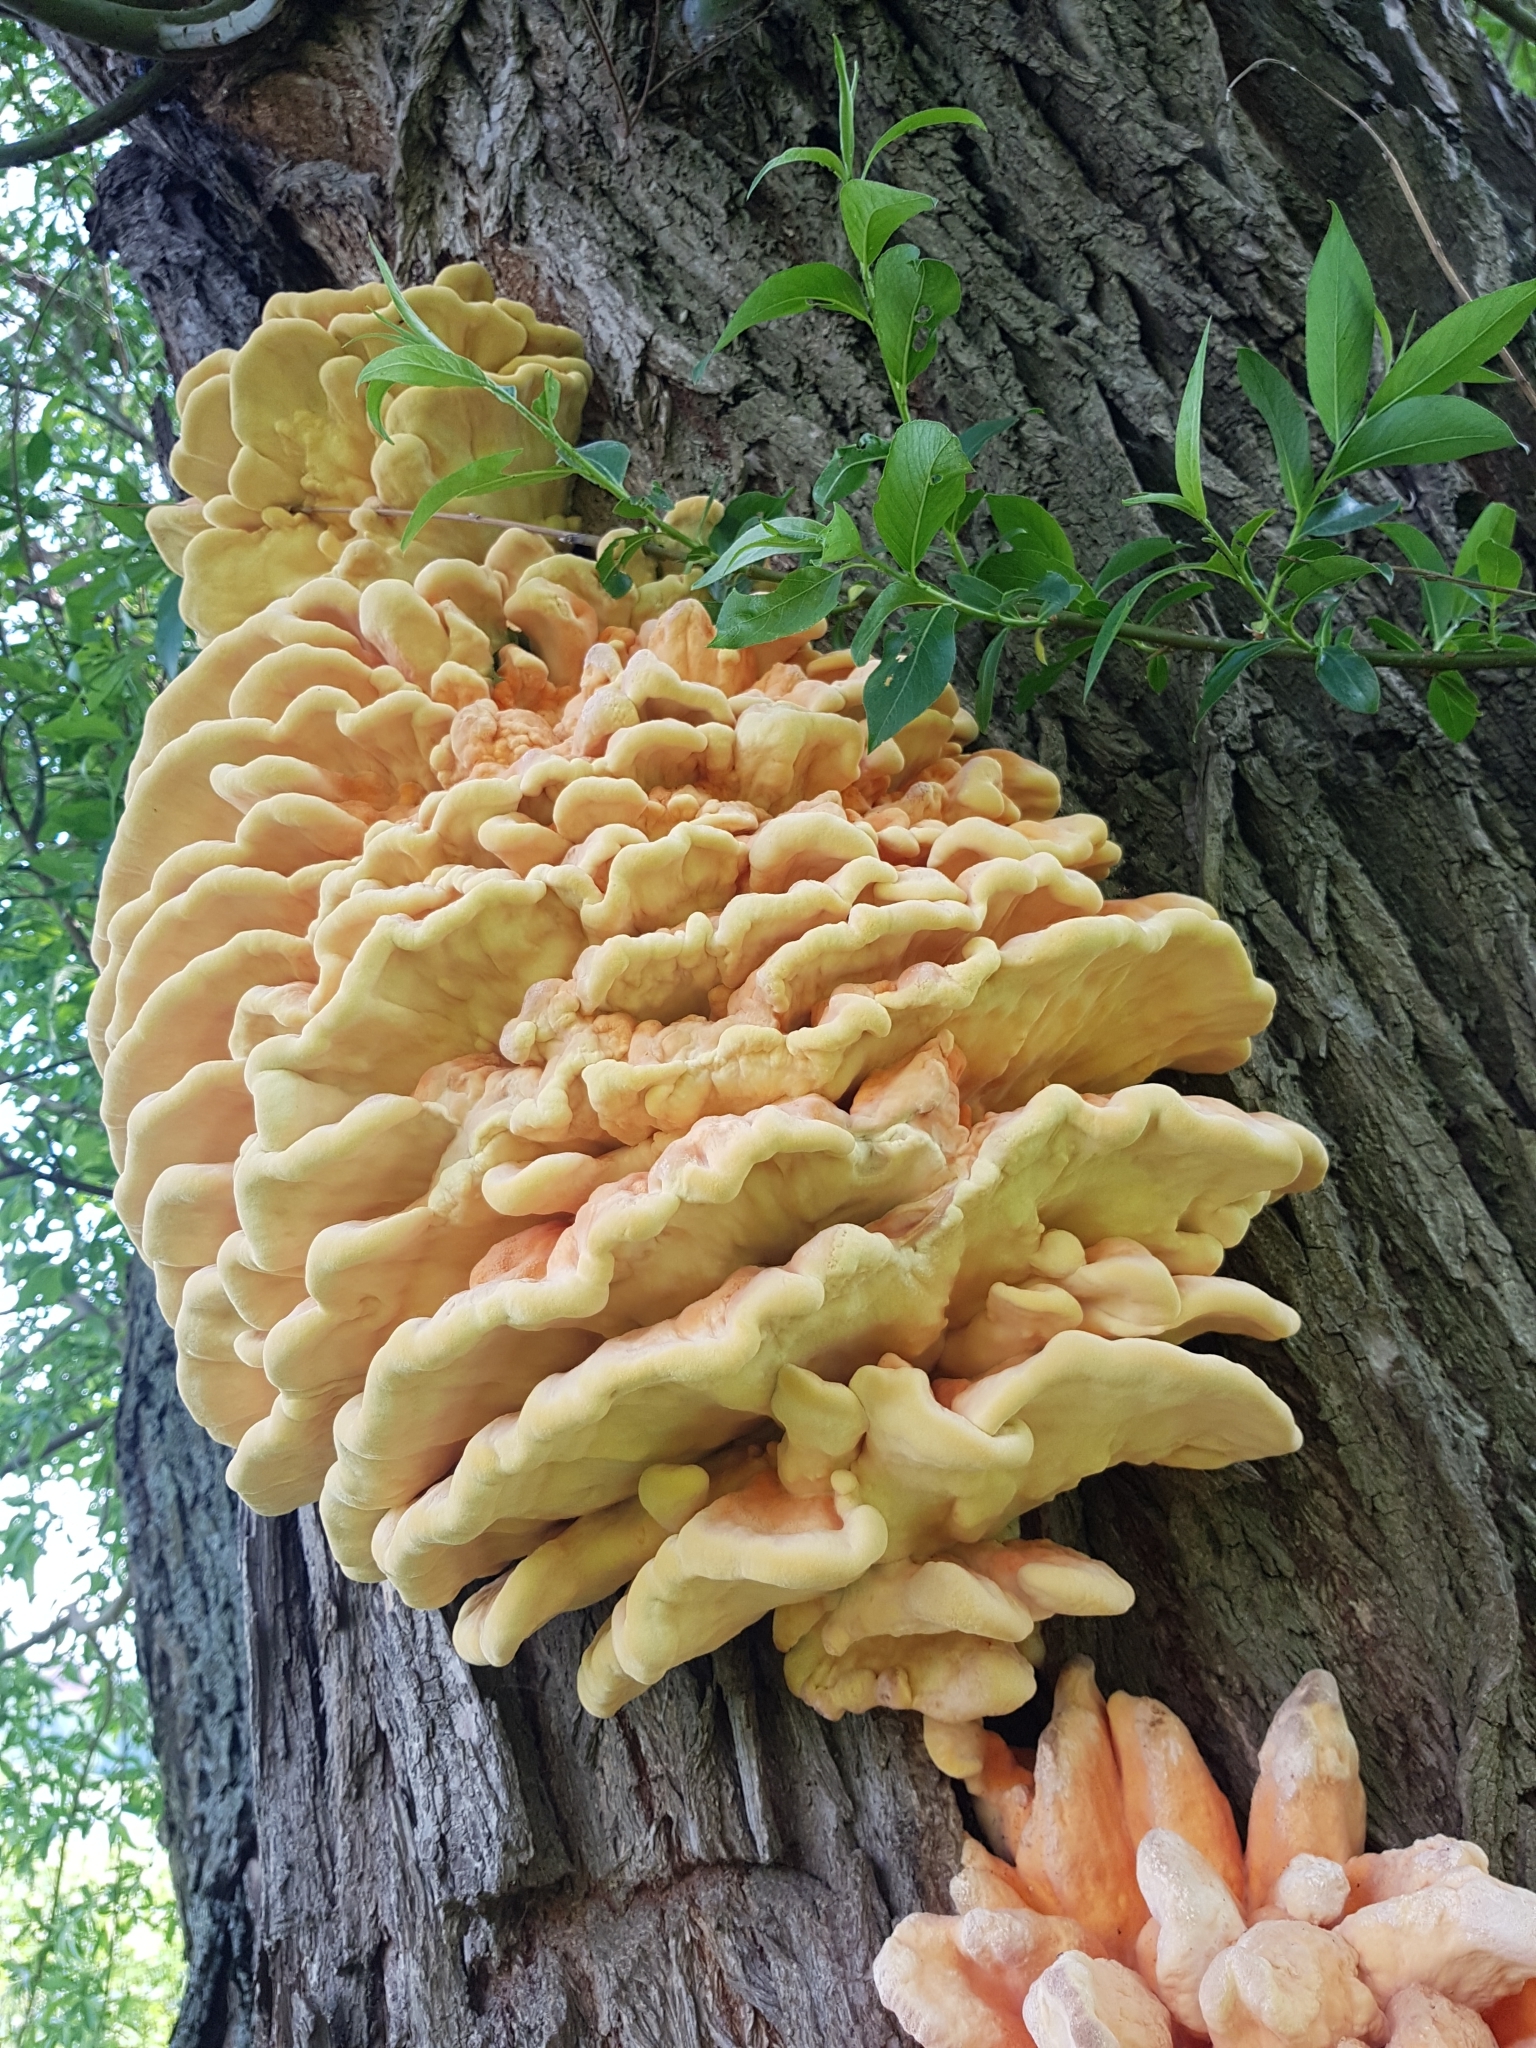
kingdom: Fungi
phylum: Basidiomycota
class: Agaricomycetes
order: Polyporales
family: Laetiporaceae
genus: Laetiporus
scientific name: Laetiporus sulphureus
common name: Chicken of the woods
